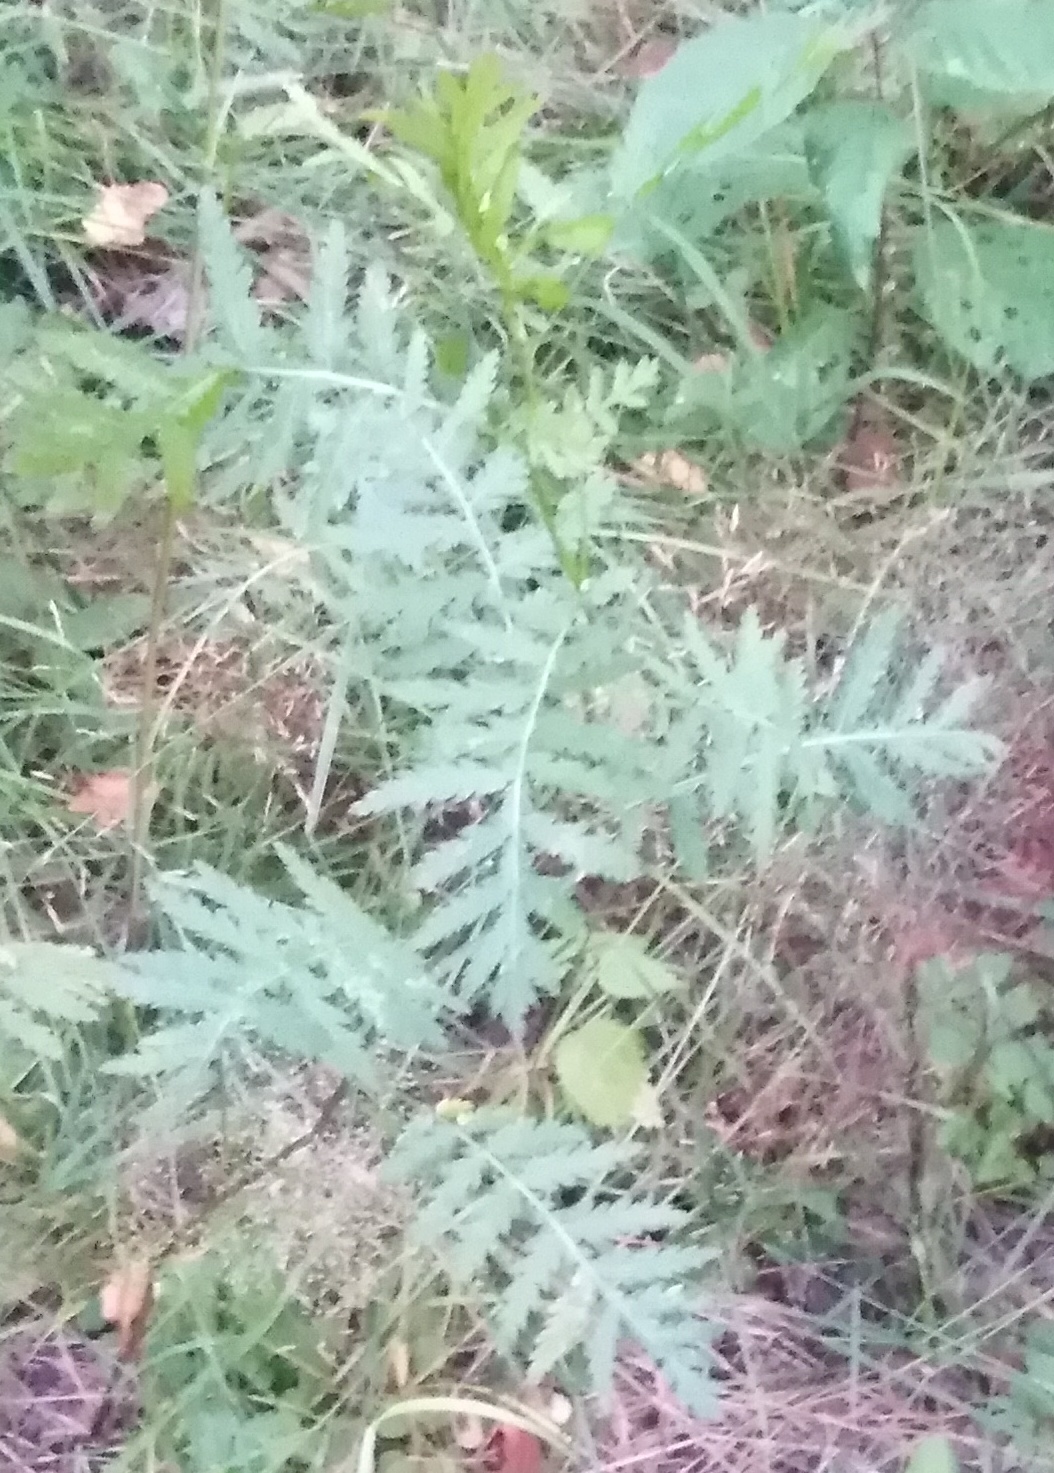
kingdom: Plantae
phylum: Tracheophyta
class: Magnoliopsida
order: Asterales
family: Asteraceae
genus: Tanacetum
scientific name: Tanacetum vulgare
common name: Common tansy
